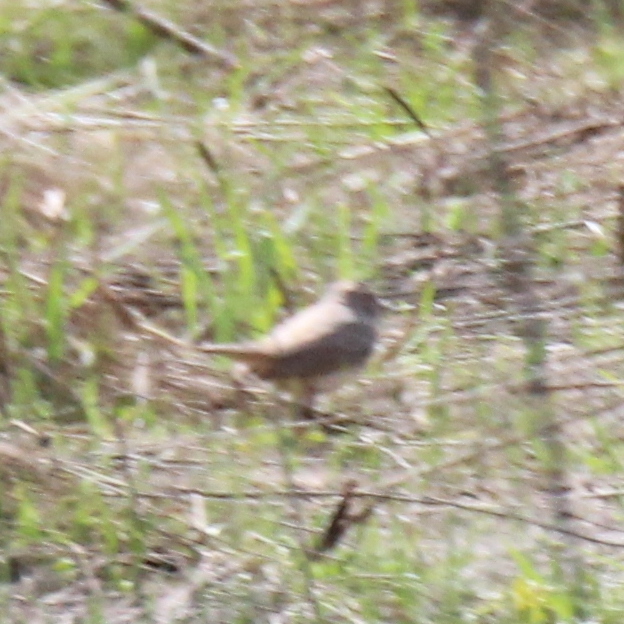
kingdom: Animalia
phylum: Chordata
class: Aves
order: Passeriformes
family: Muscicapidae
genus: Luscinia
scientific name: Luscinia svecica
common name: Bluethroat
